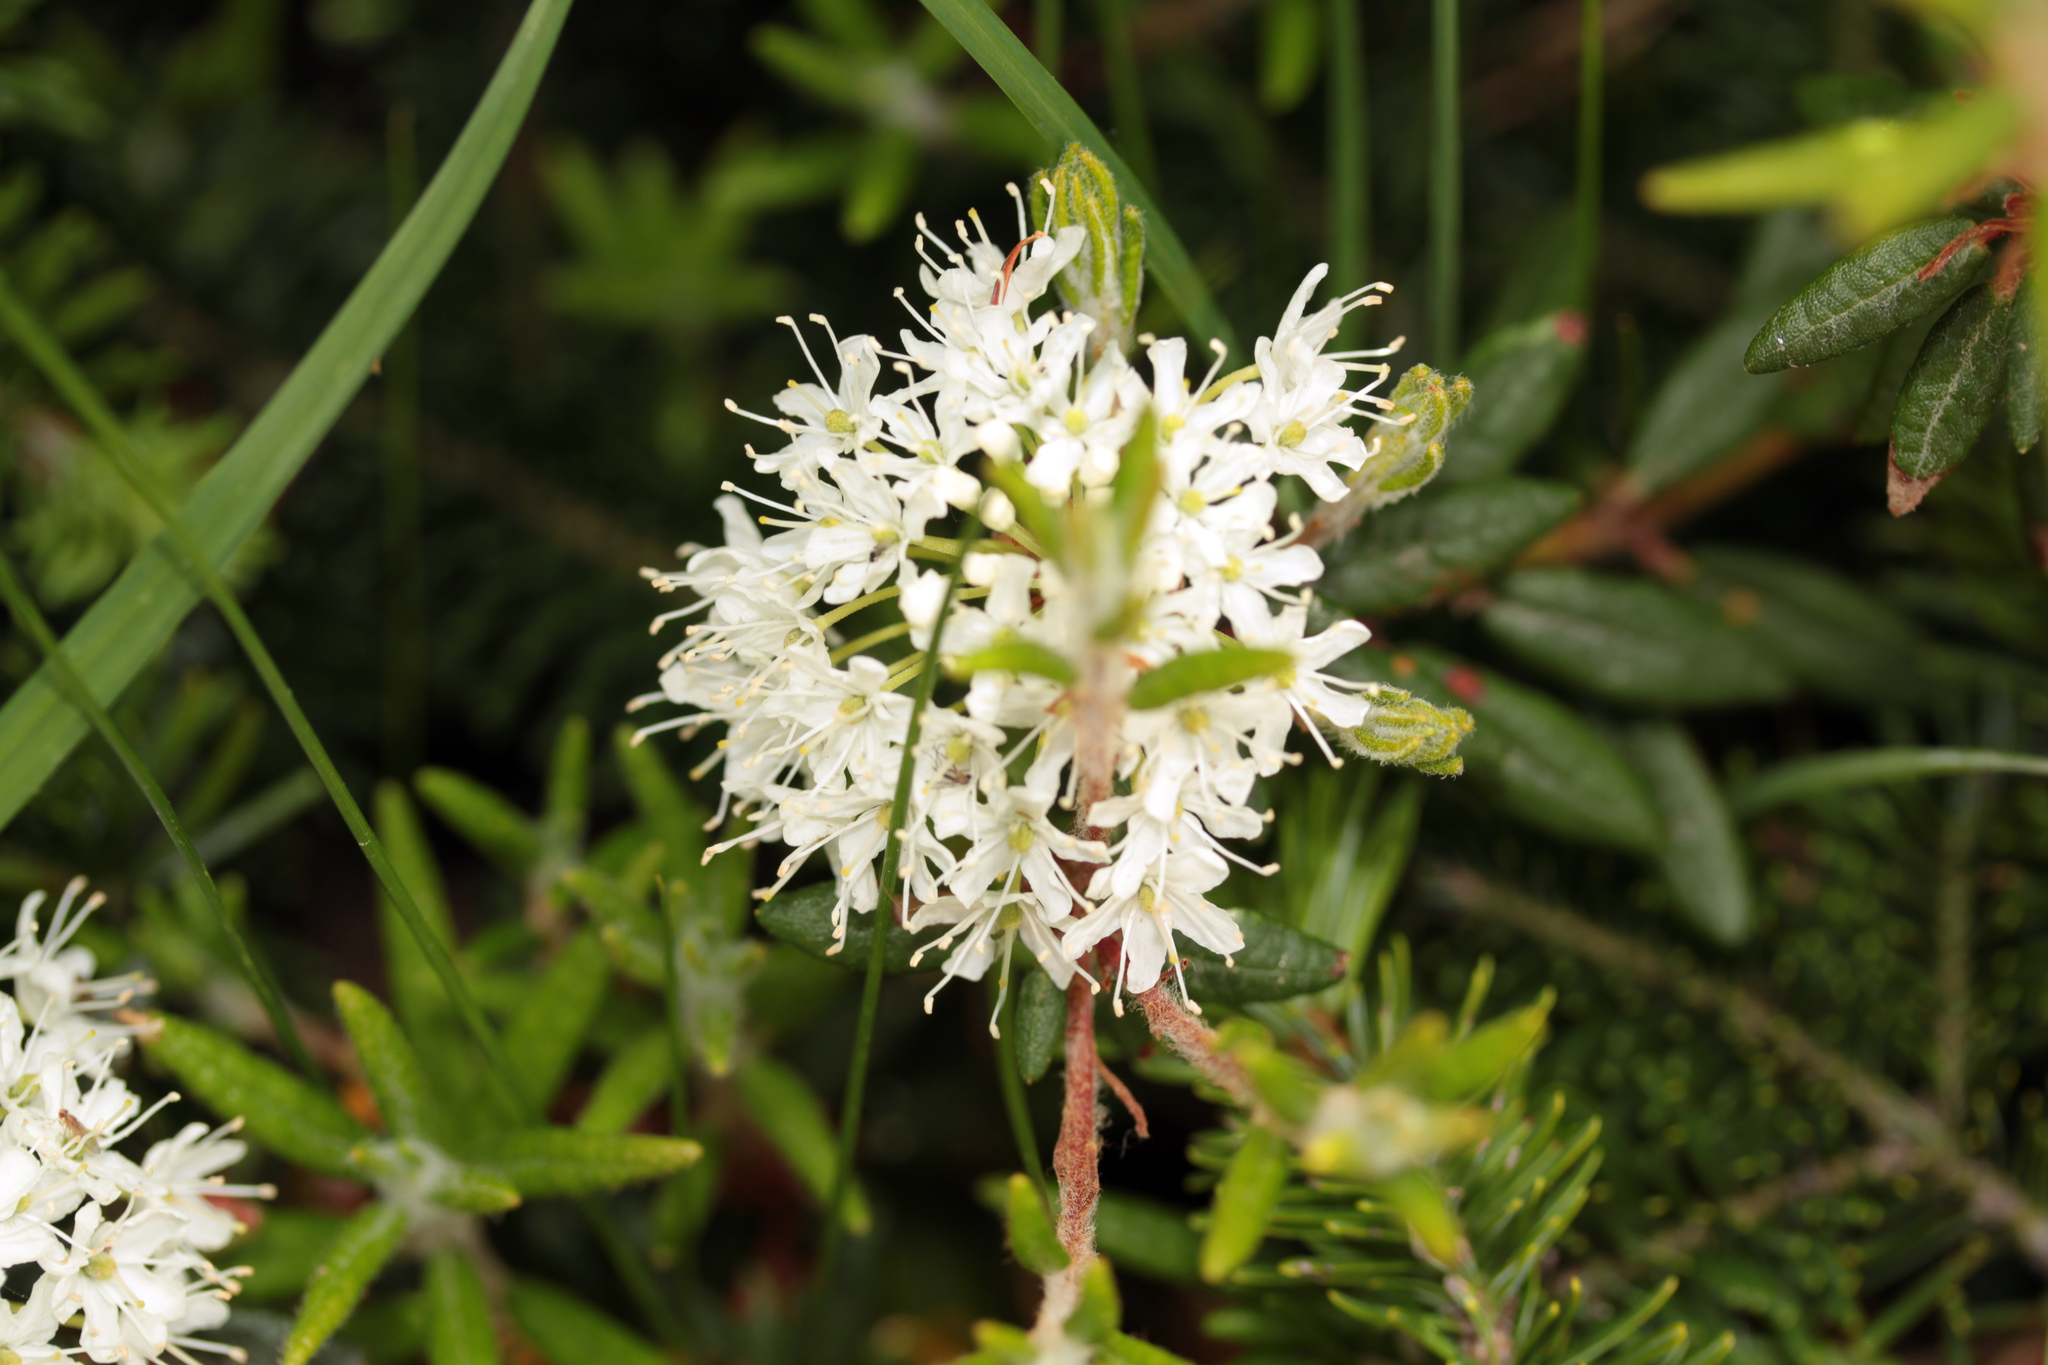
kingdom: Plantae
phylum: Tracheophyta
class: Magnoliopsida
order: Ericales
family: Ericaceae
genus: Rhododendron
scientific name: Rhododendron groenlandicum
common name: Bog labrador tea
